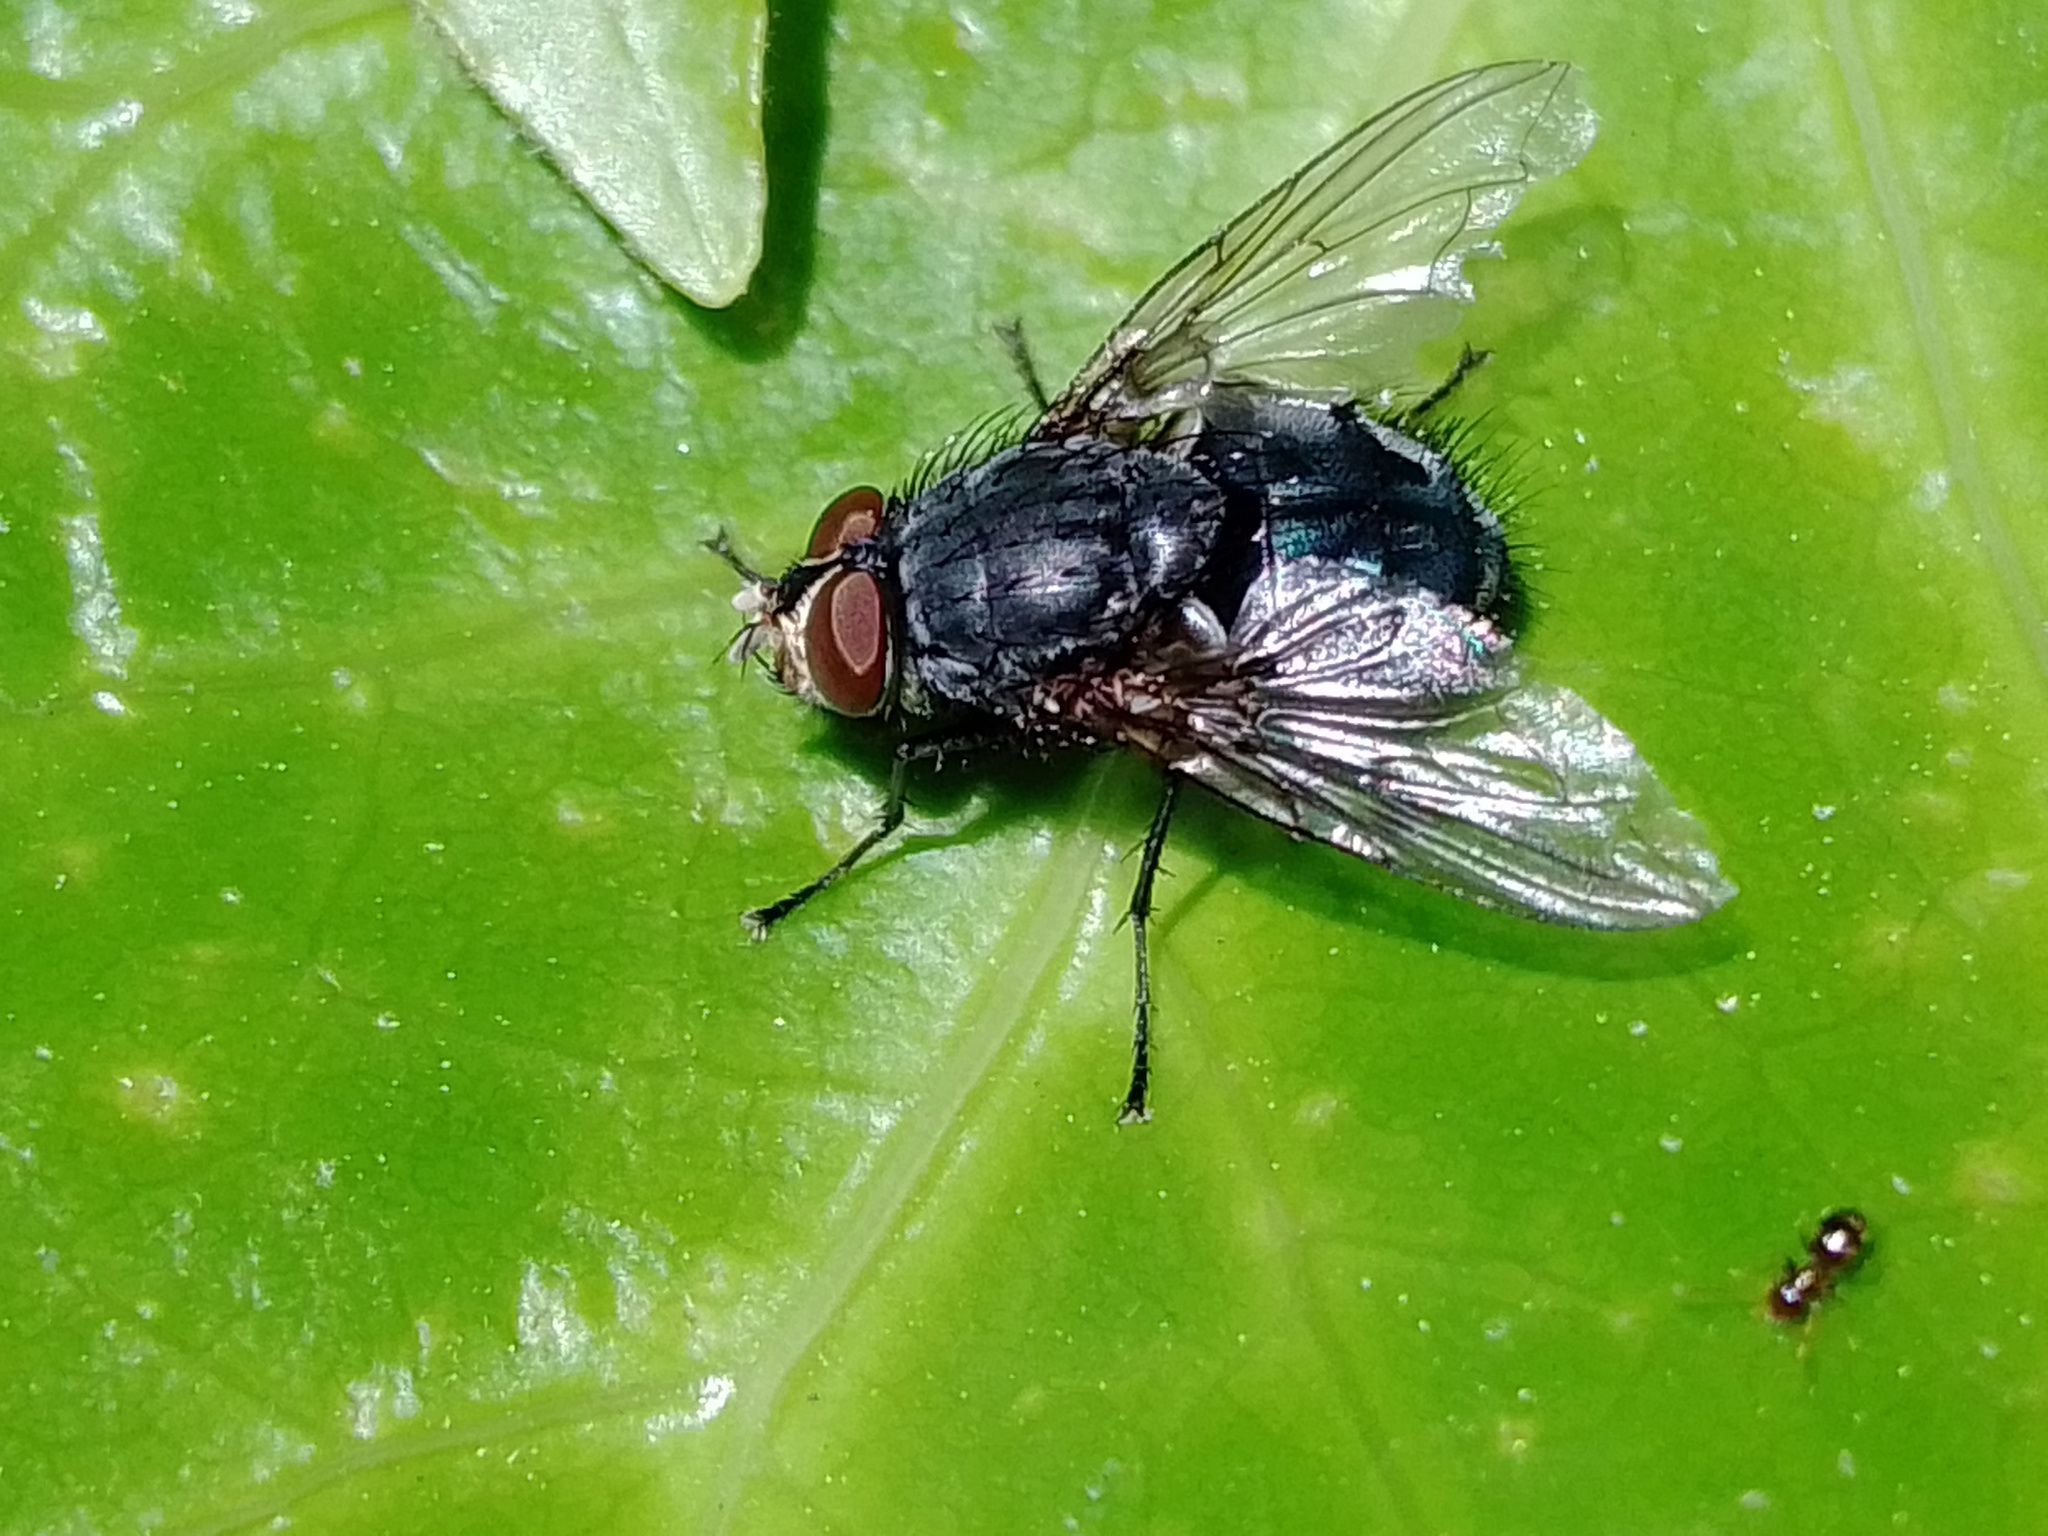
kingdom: Animalia
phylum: Arthropoda
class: Insecta
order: Diptera
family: Calliphoridae
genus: Calliphora
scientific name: Calliphora vicina
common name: Common blow flie
